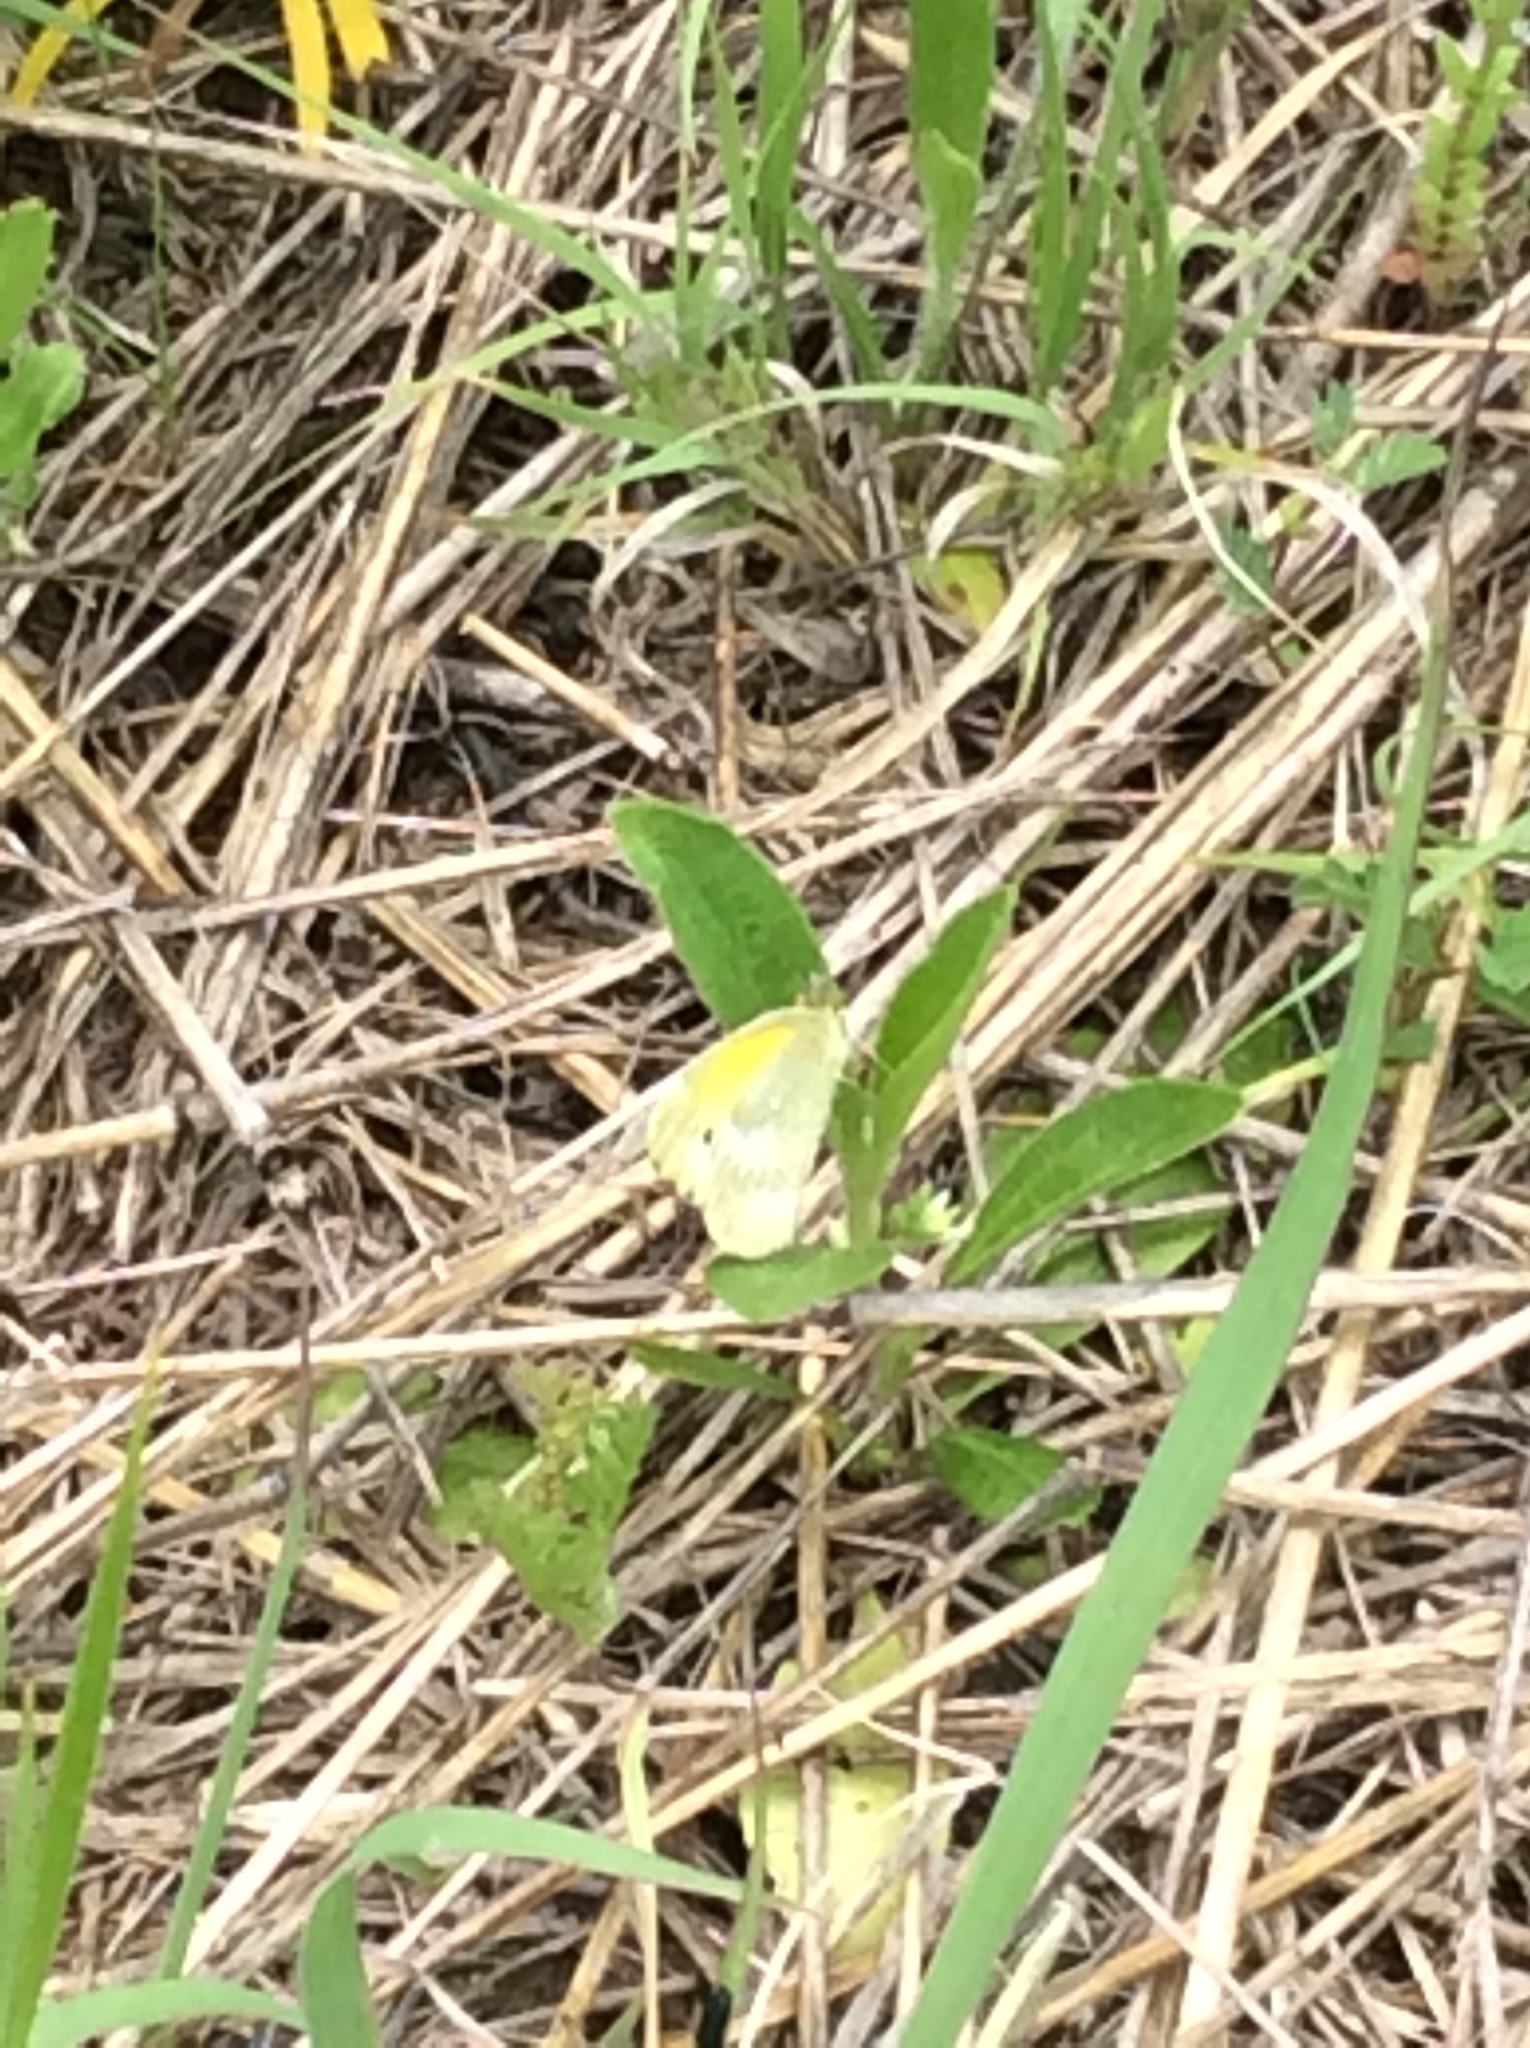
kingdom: Animalia
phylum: Arthropoda
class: Insecta
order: Lepidoptera
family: Pieridae
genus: Nathalis
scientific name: Nathalis iole
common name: Dainty sulphur
